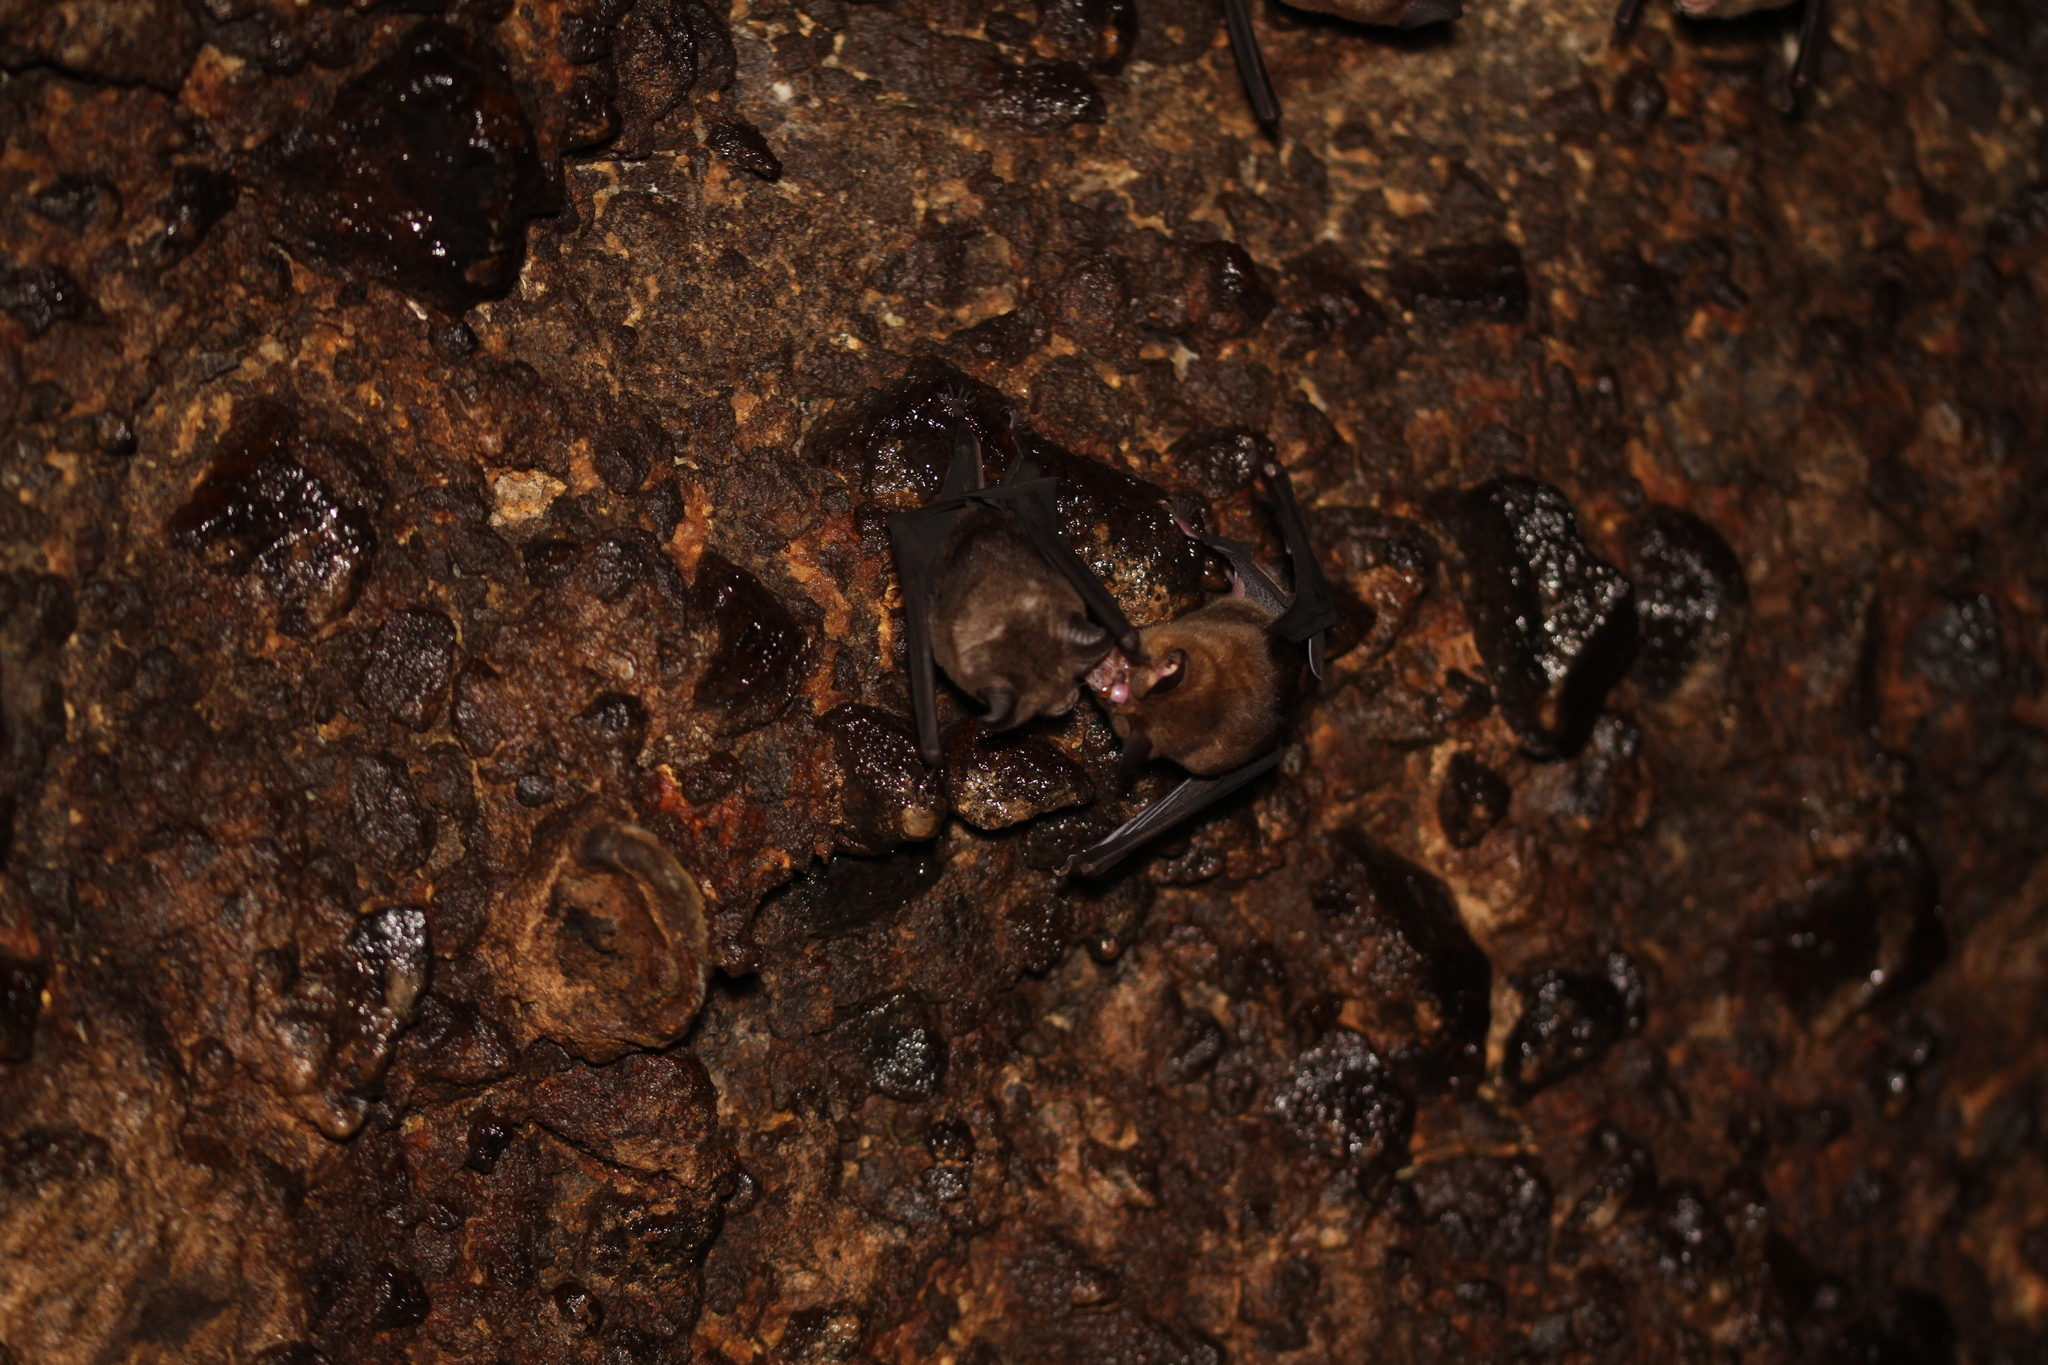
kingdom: Animalia
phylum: Chordata
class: Mammalia
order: Chiroptera
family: Hipposideridae
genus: Hipposideros
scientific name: Hipposideros larvatus
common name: Intermediate leaf-nosed bat
